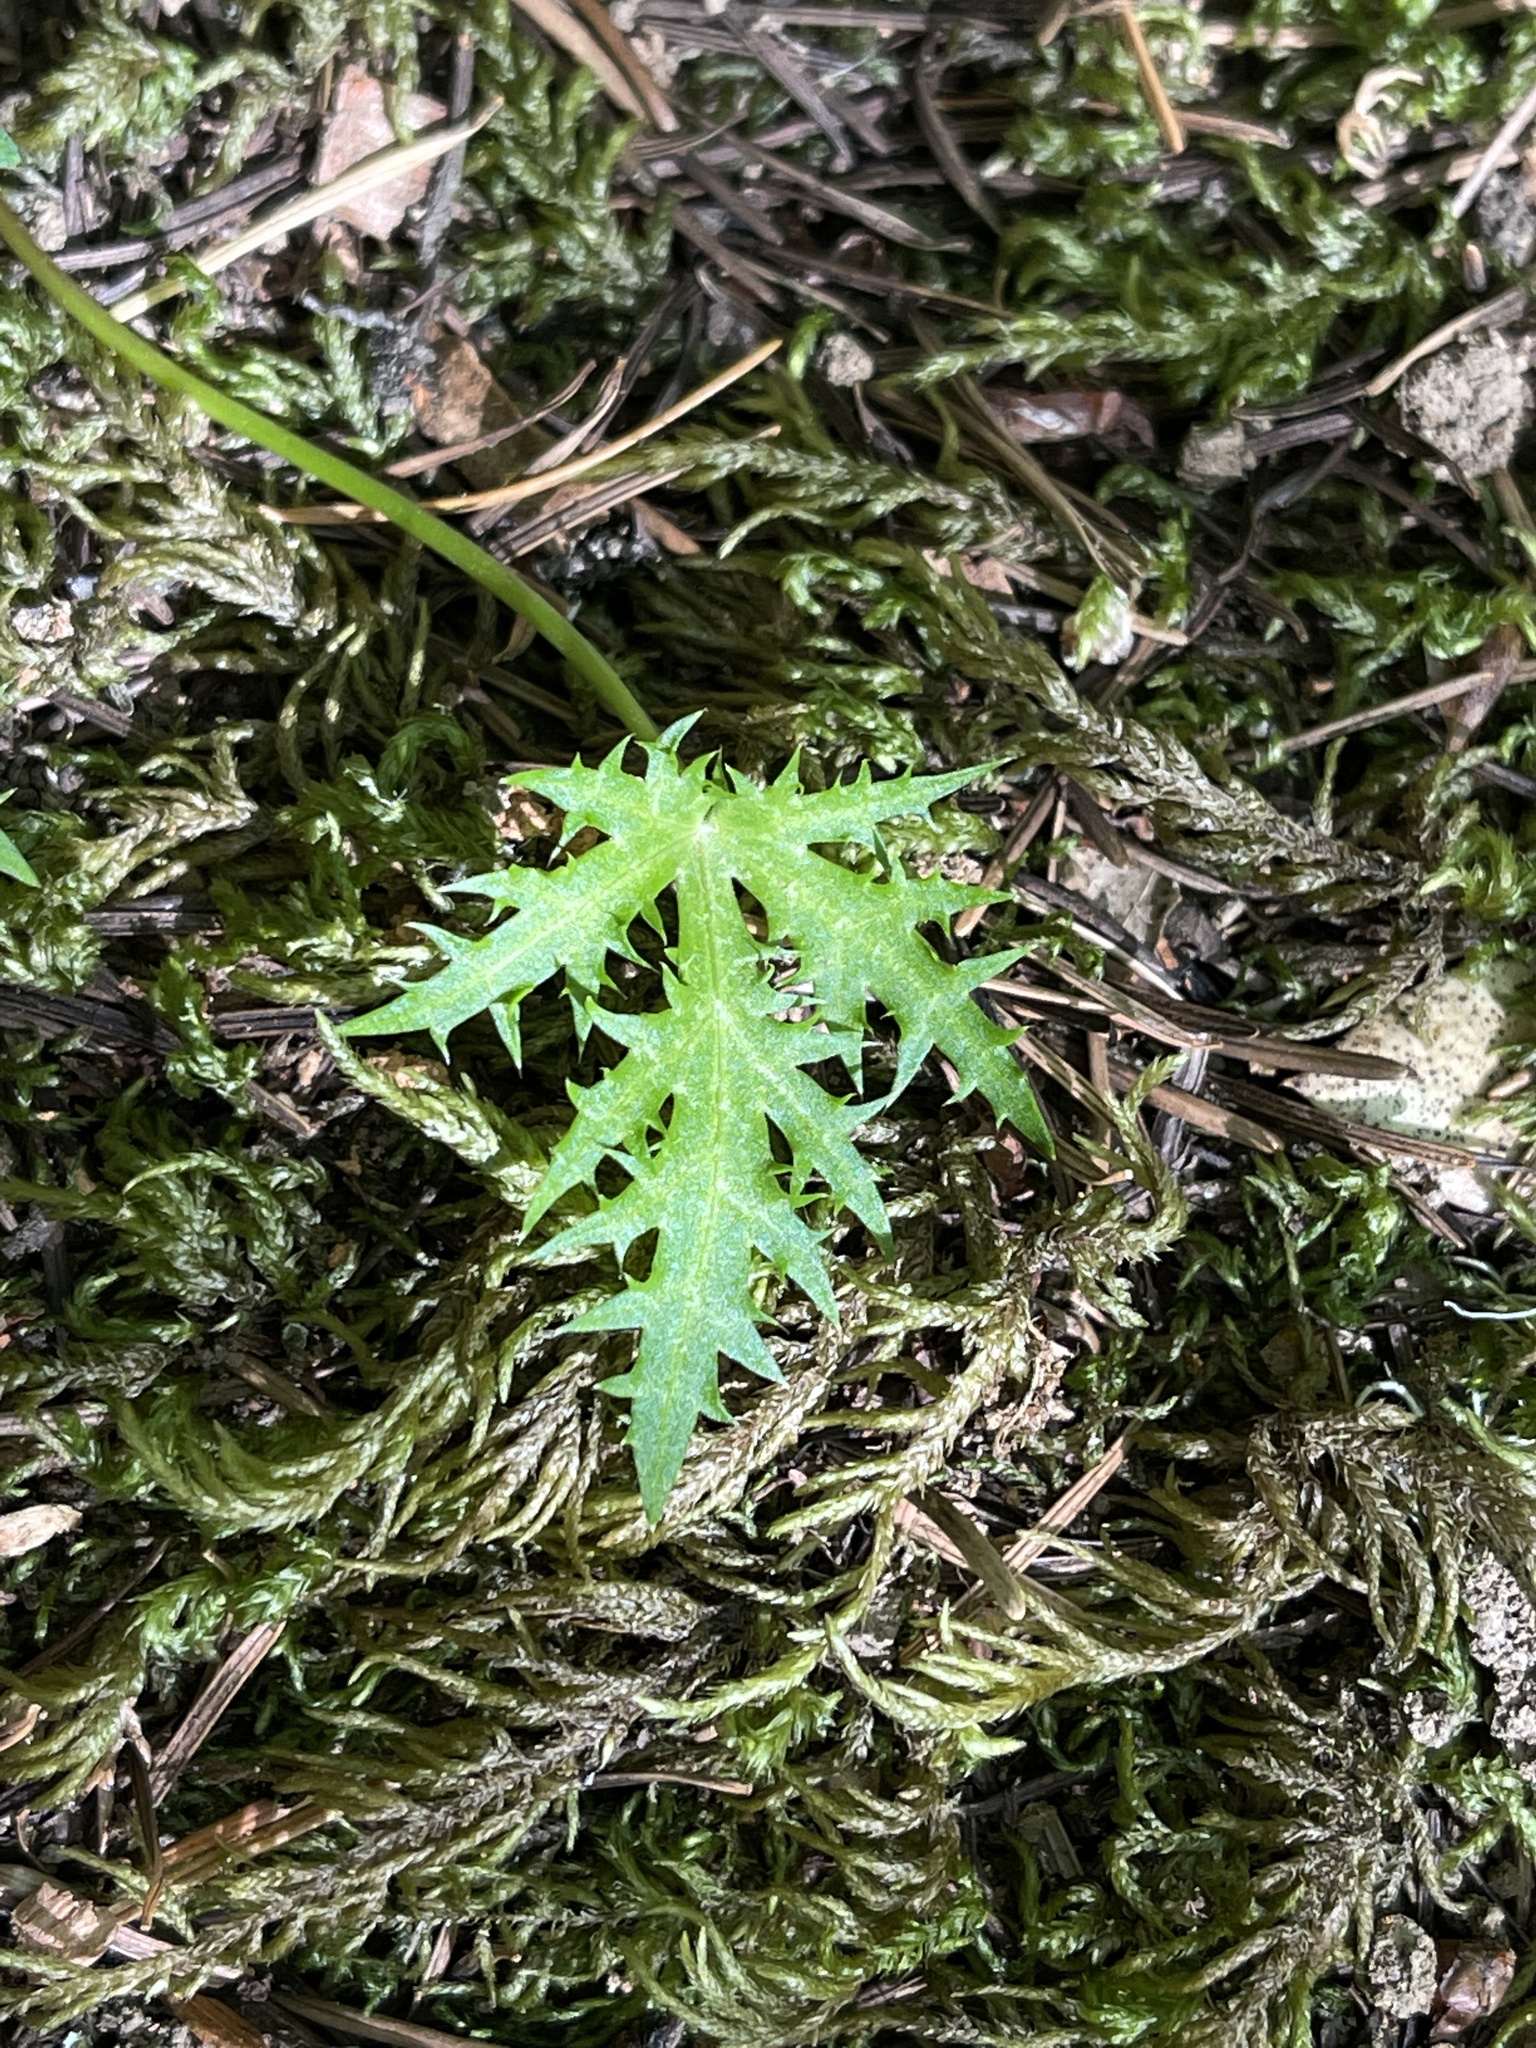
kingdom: Plantae
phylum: Tracheophyta
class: Magnoliopsida
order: Apiales
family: Apiaceae
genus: Sanicula
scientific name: Sanicula laciniata
